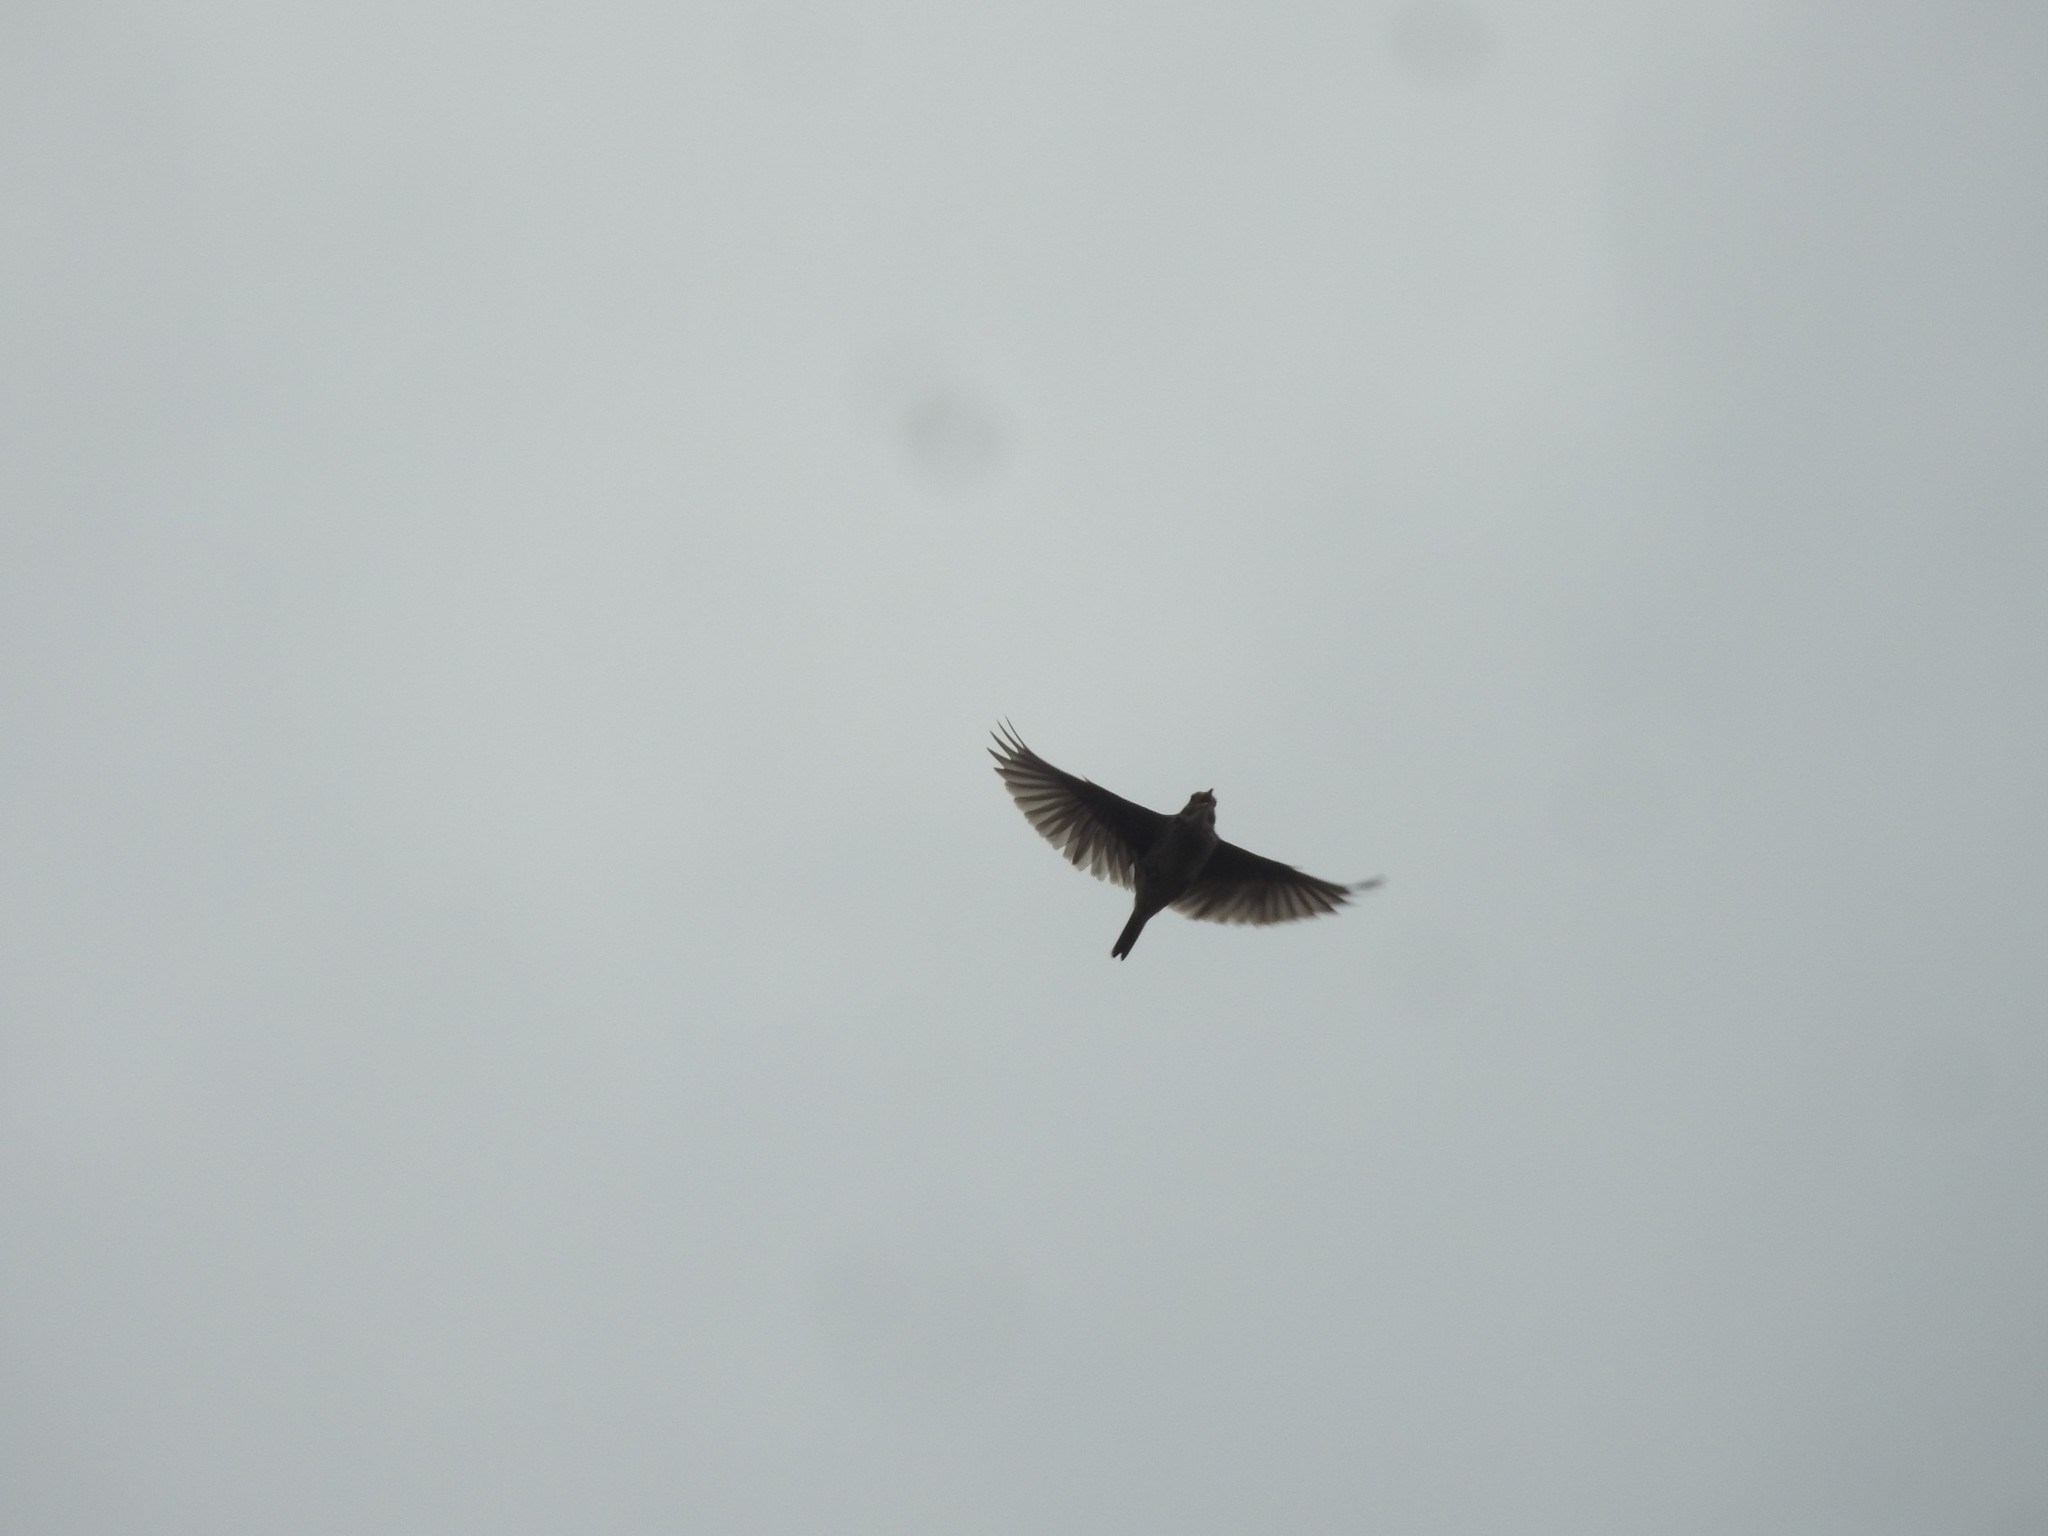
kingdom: Animalia
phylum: Chordata
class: Aves
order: Passeriformes
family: Alaudidae
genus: Alauda
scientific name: Alauda gulgula
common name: Oriental skylark
